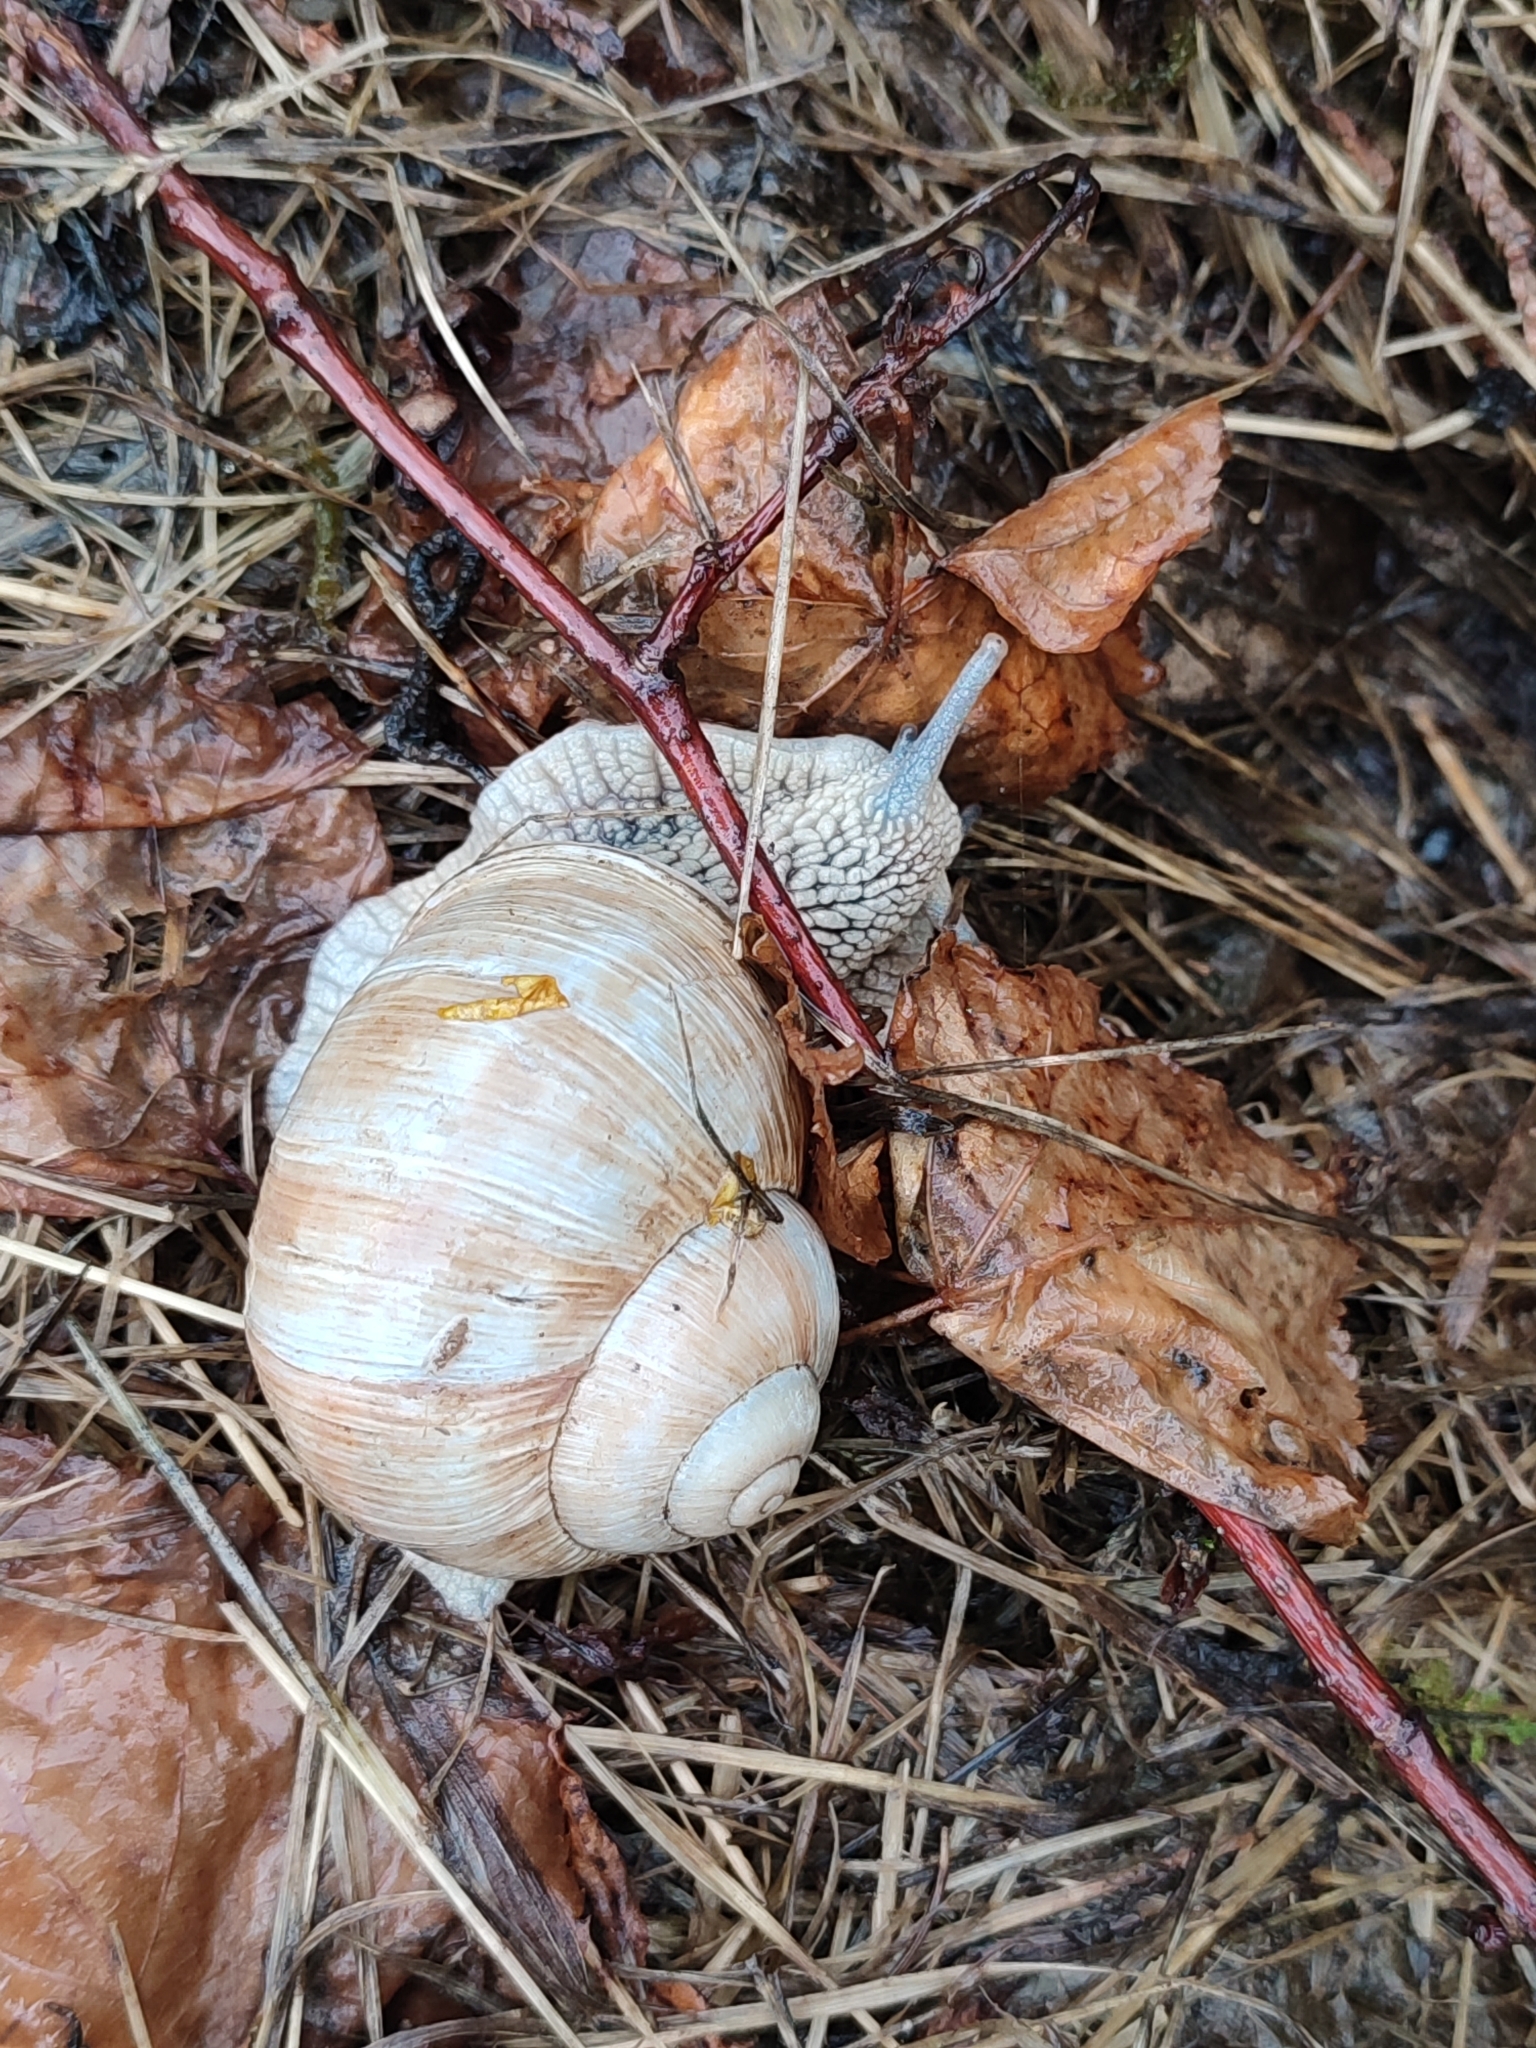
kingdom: Animalia
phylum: Mollusca
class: Gastropoda
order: Stylommatophora
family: Helicidae
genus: Helix
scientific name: Helix pomatia
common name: Roman snail
